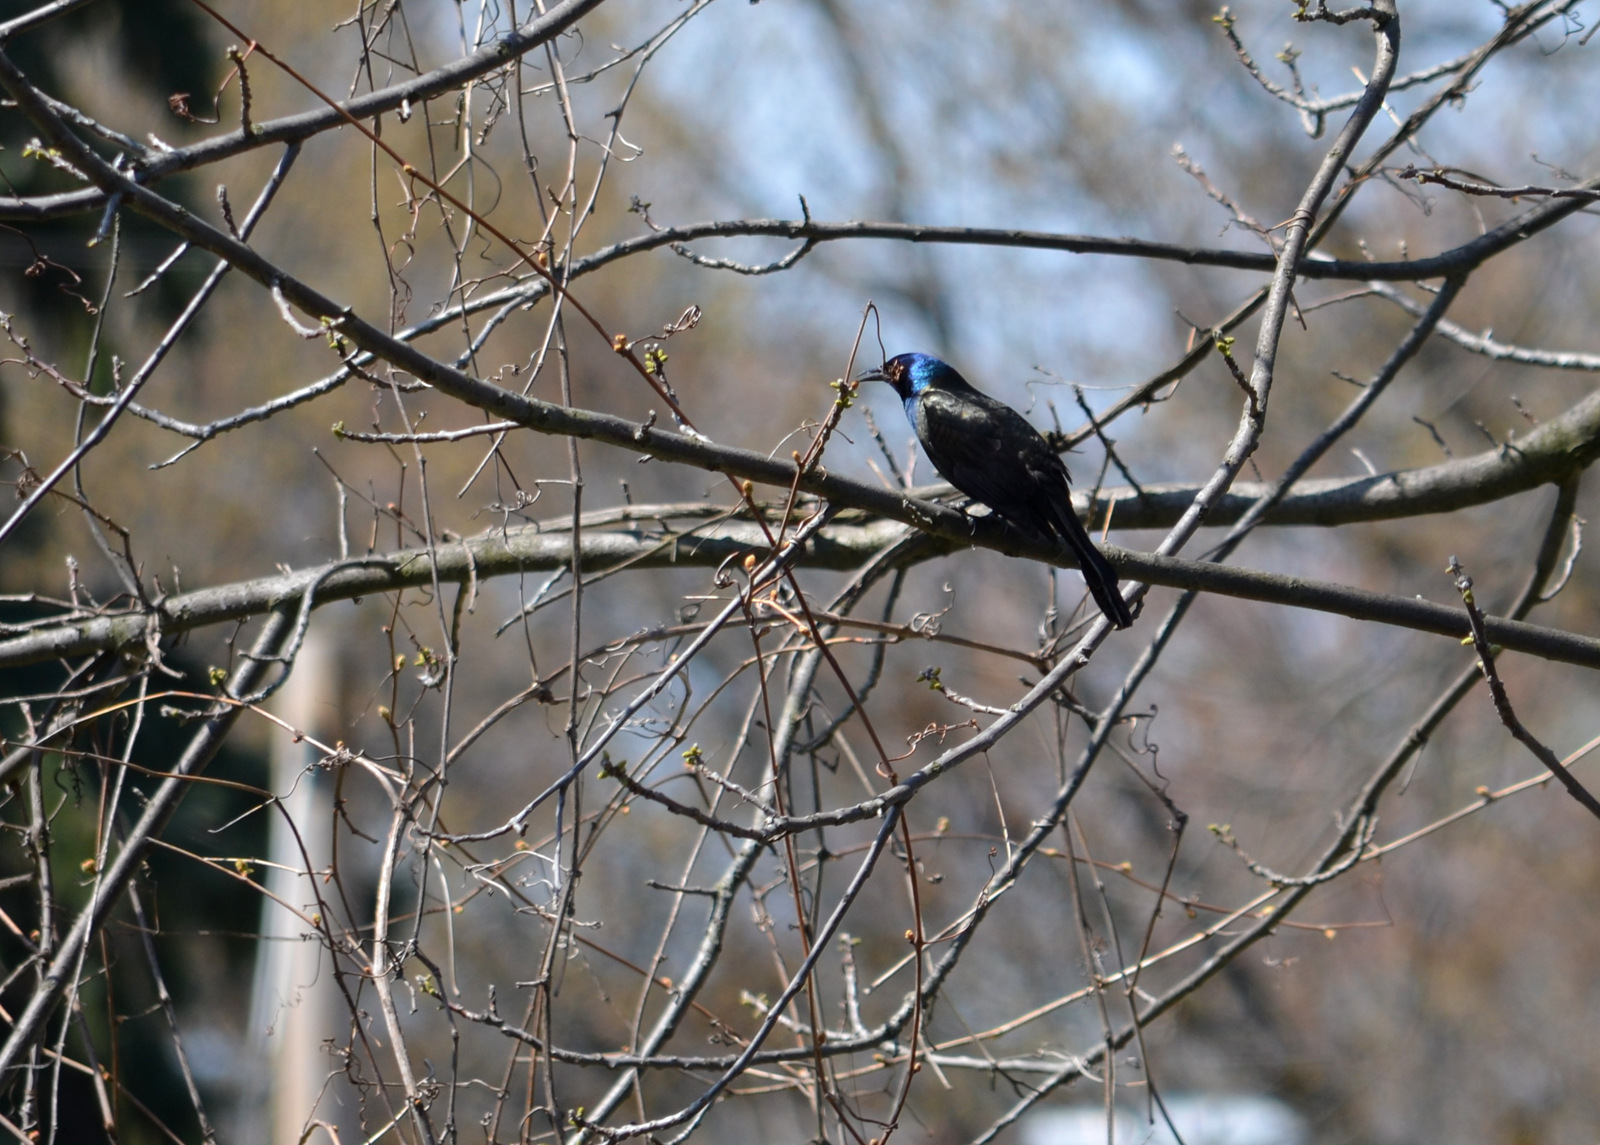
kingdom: Animalia
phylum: Chordata
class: Aves
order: Passeriformes
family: Icteridae
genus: Quiscalus
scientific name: Quiscalus quiscula
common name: Common grackle
